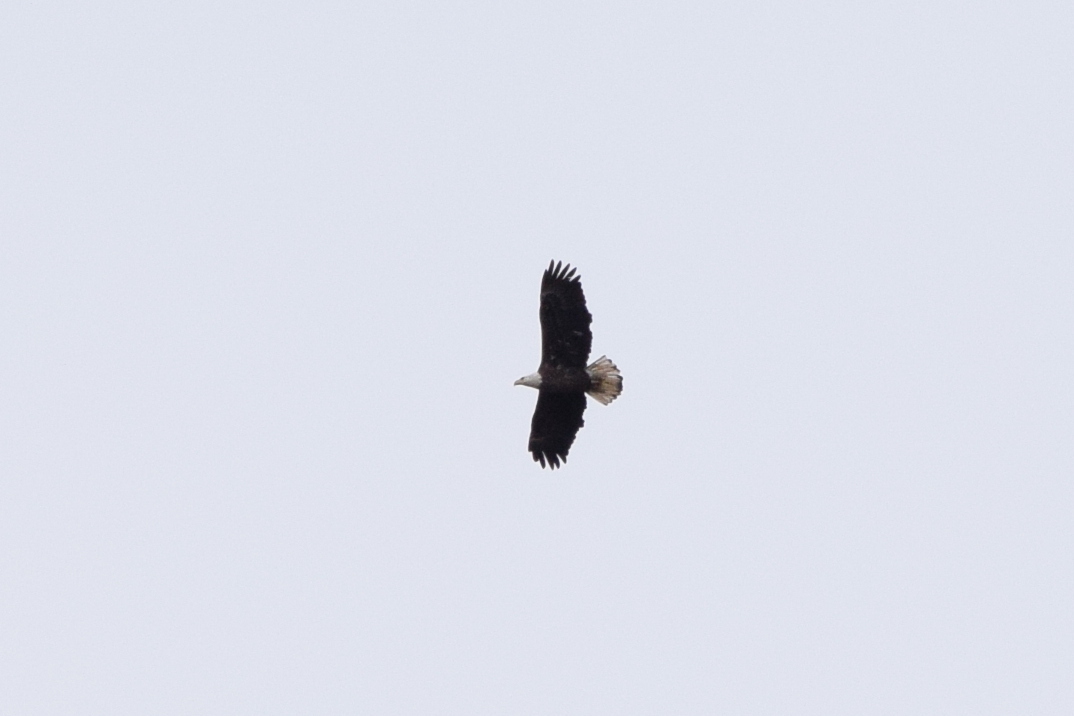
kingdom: Animalia
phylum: Chordata
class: Aves
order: Accipitriformes
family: Accipitridae
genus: Haliaeetus
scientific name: Haliaeetus leucocephalus
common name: Bald eagle
